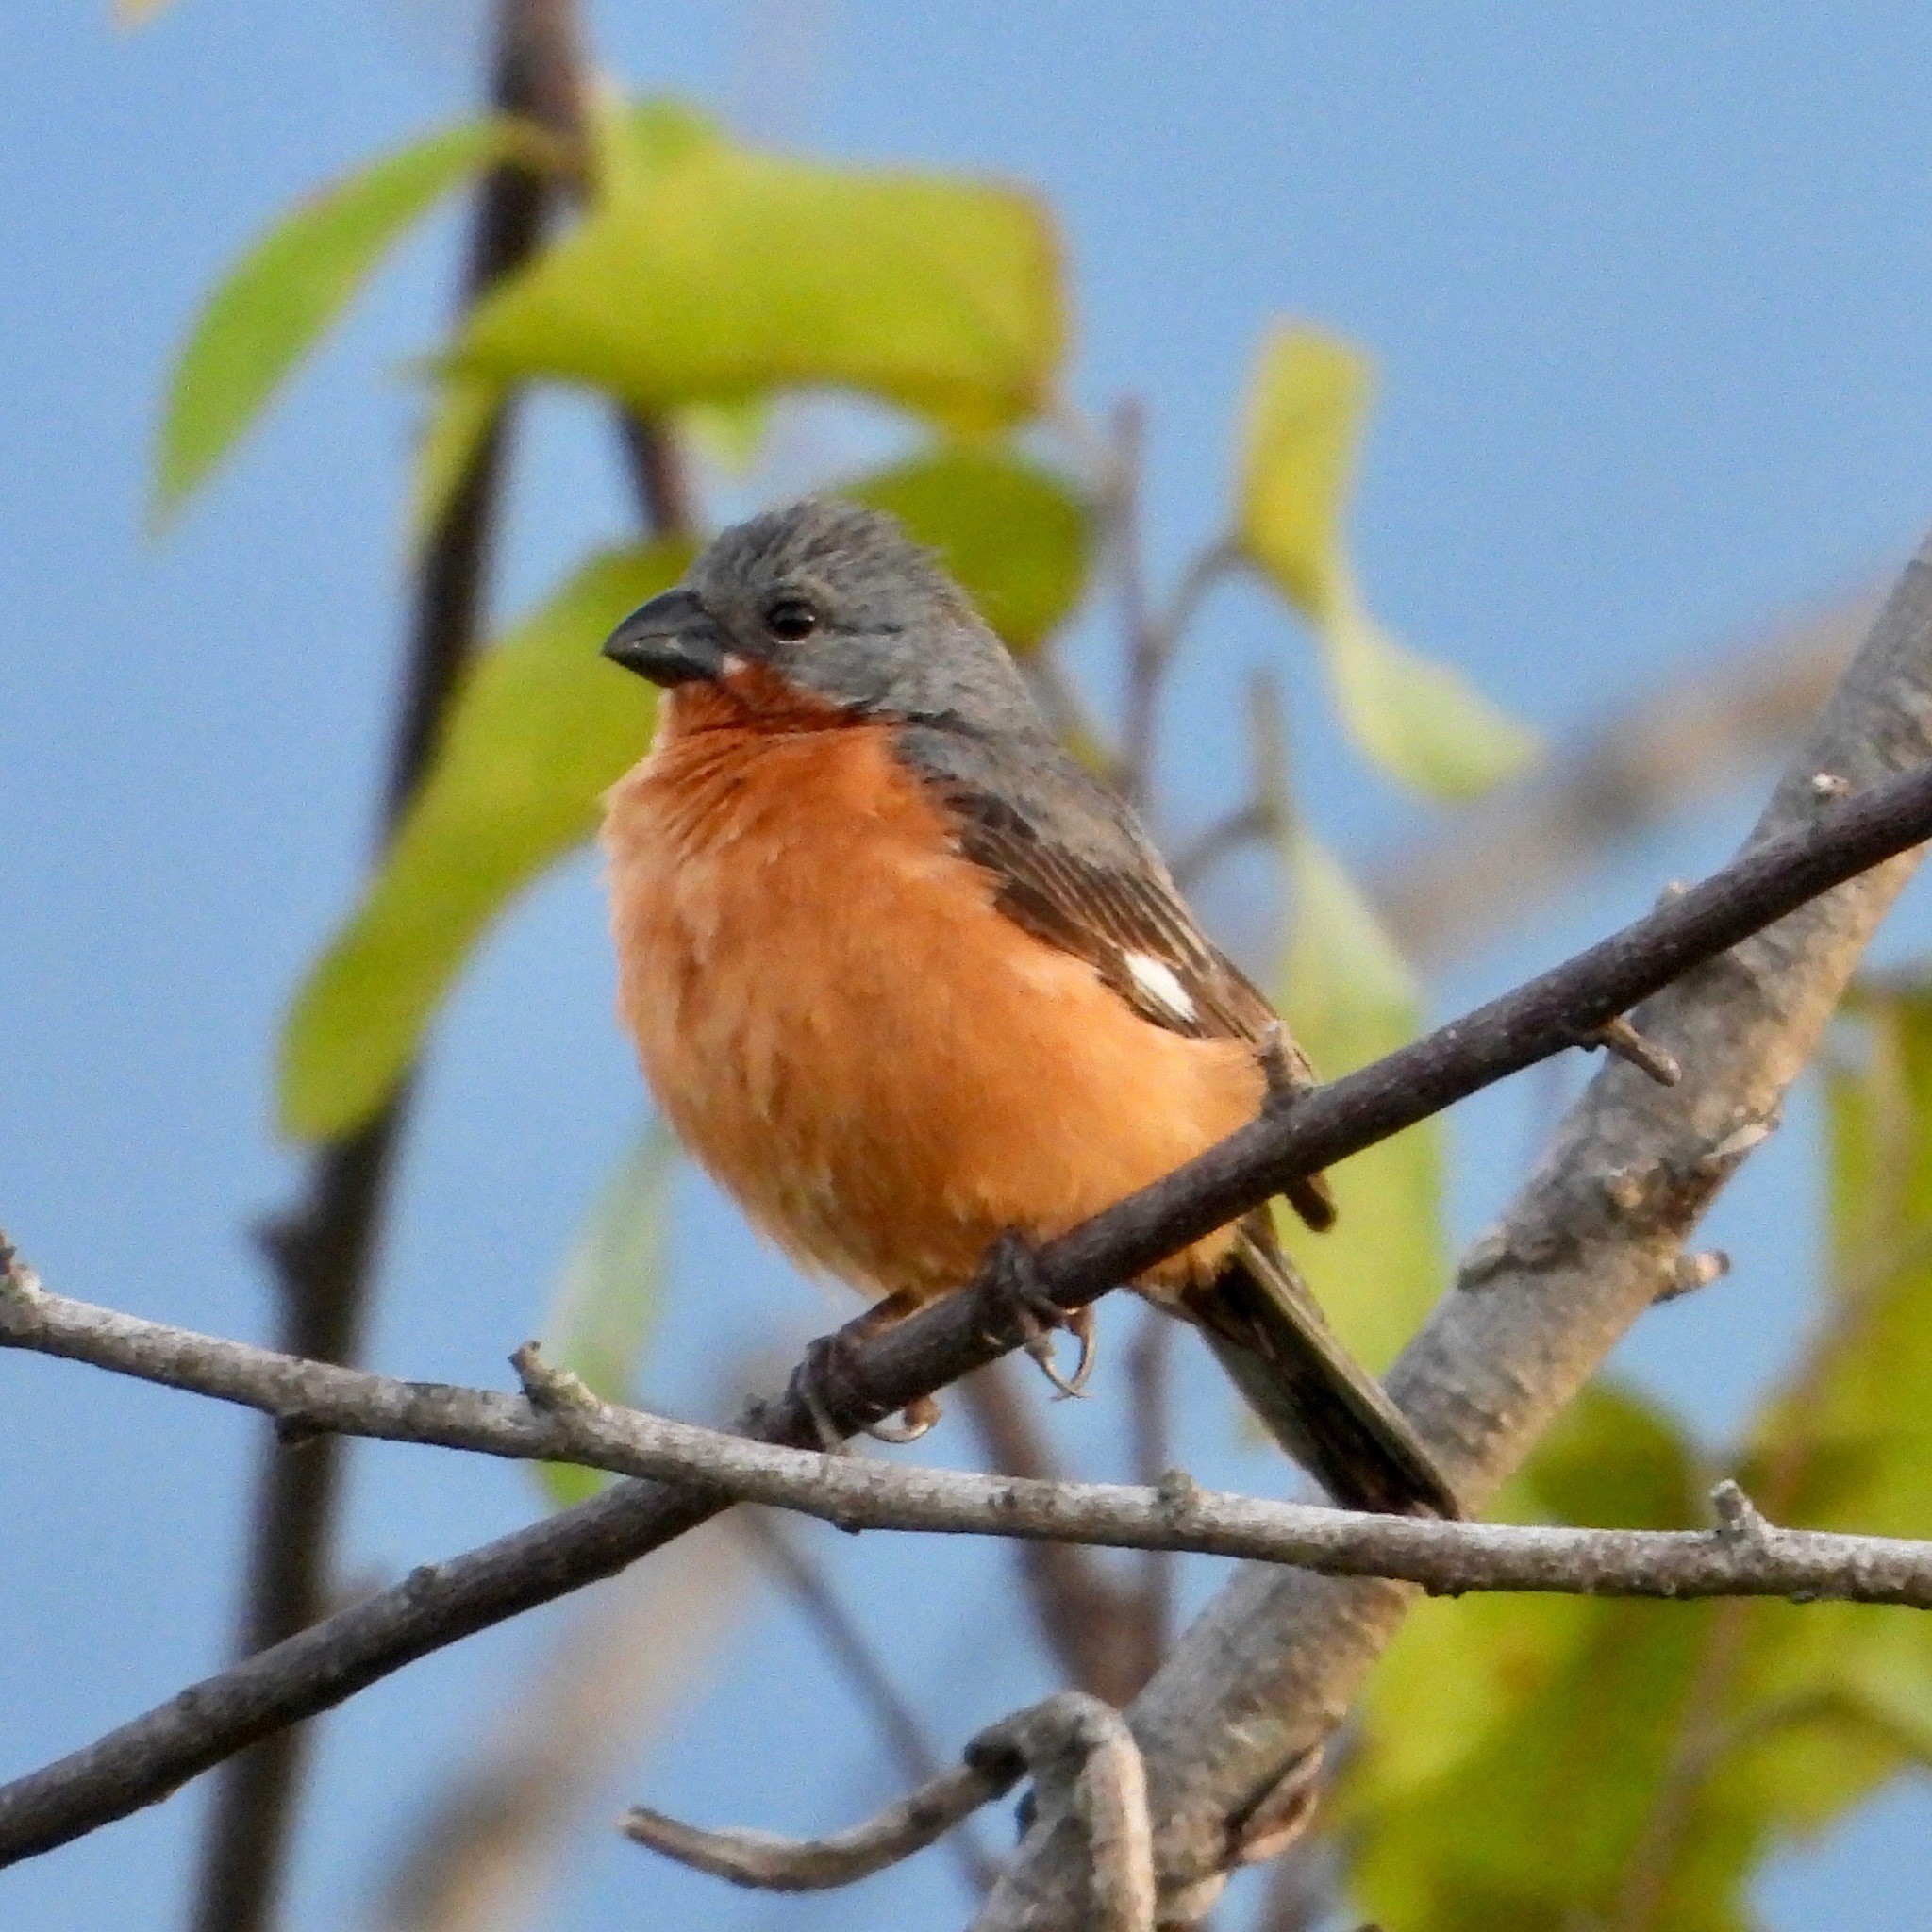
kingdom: Animalia
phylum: Chordata
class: Aves
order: Passeriformes
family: Thraupidae
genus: Sporophila
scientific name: Sporophila minuta
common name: Ruddy-breasted seedeater
